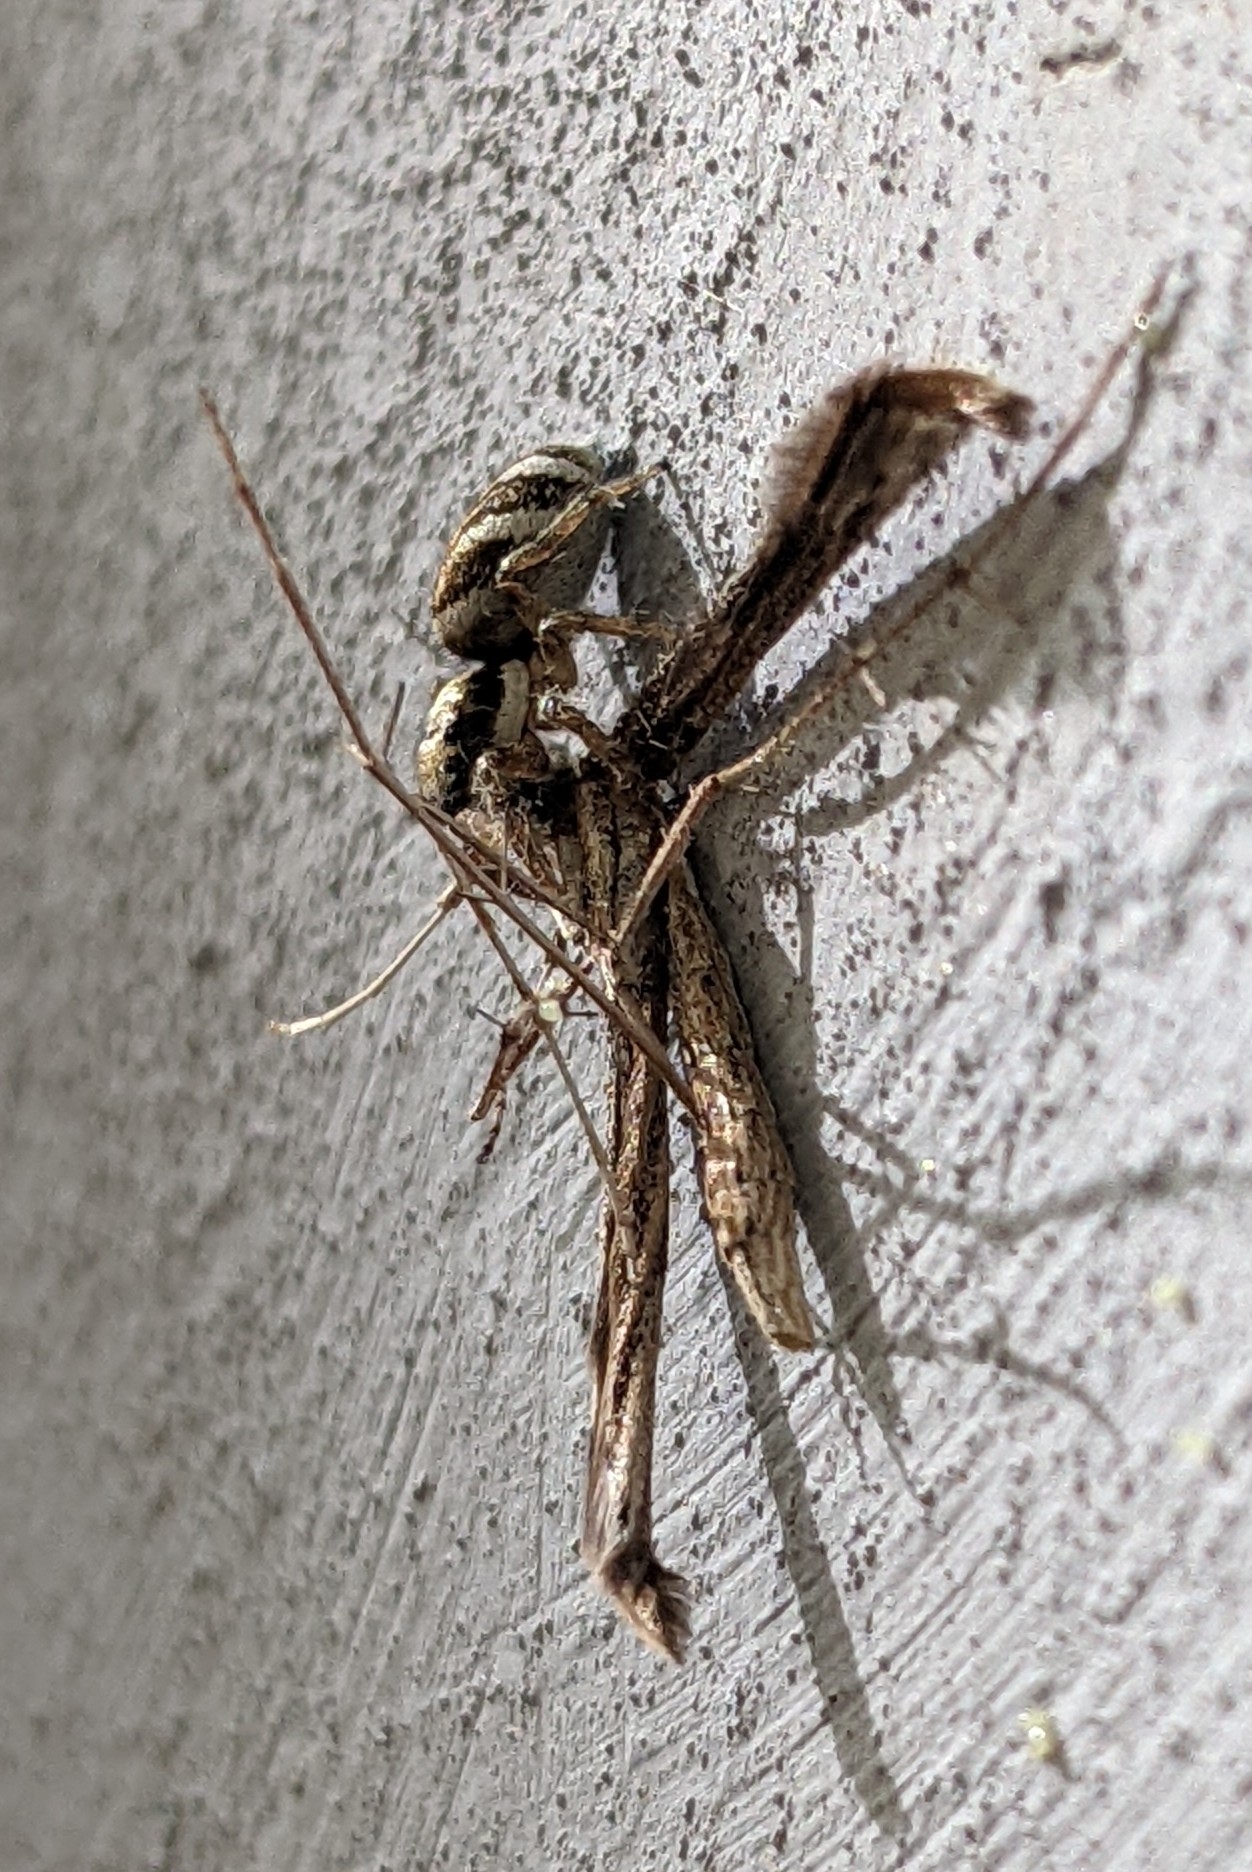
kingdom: Animalia
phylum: Arthropoda
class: Arachnida
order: Araneae
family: Salticidae
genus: Salticus
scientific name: Salticus scenicus
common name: Zebra jumper
